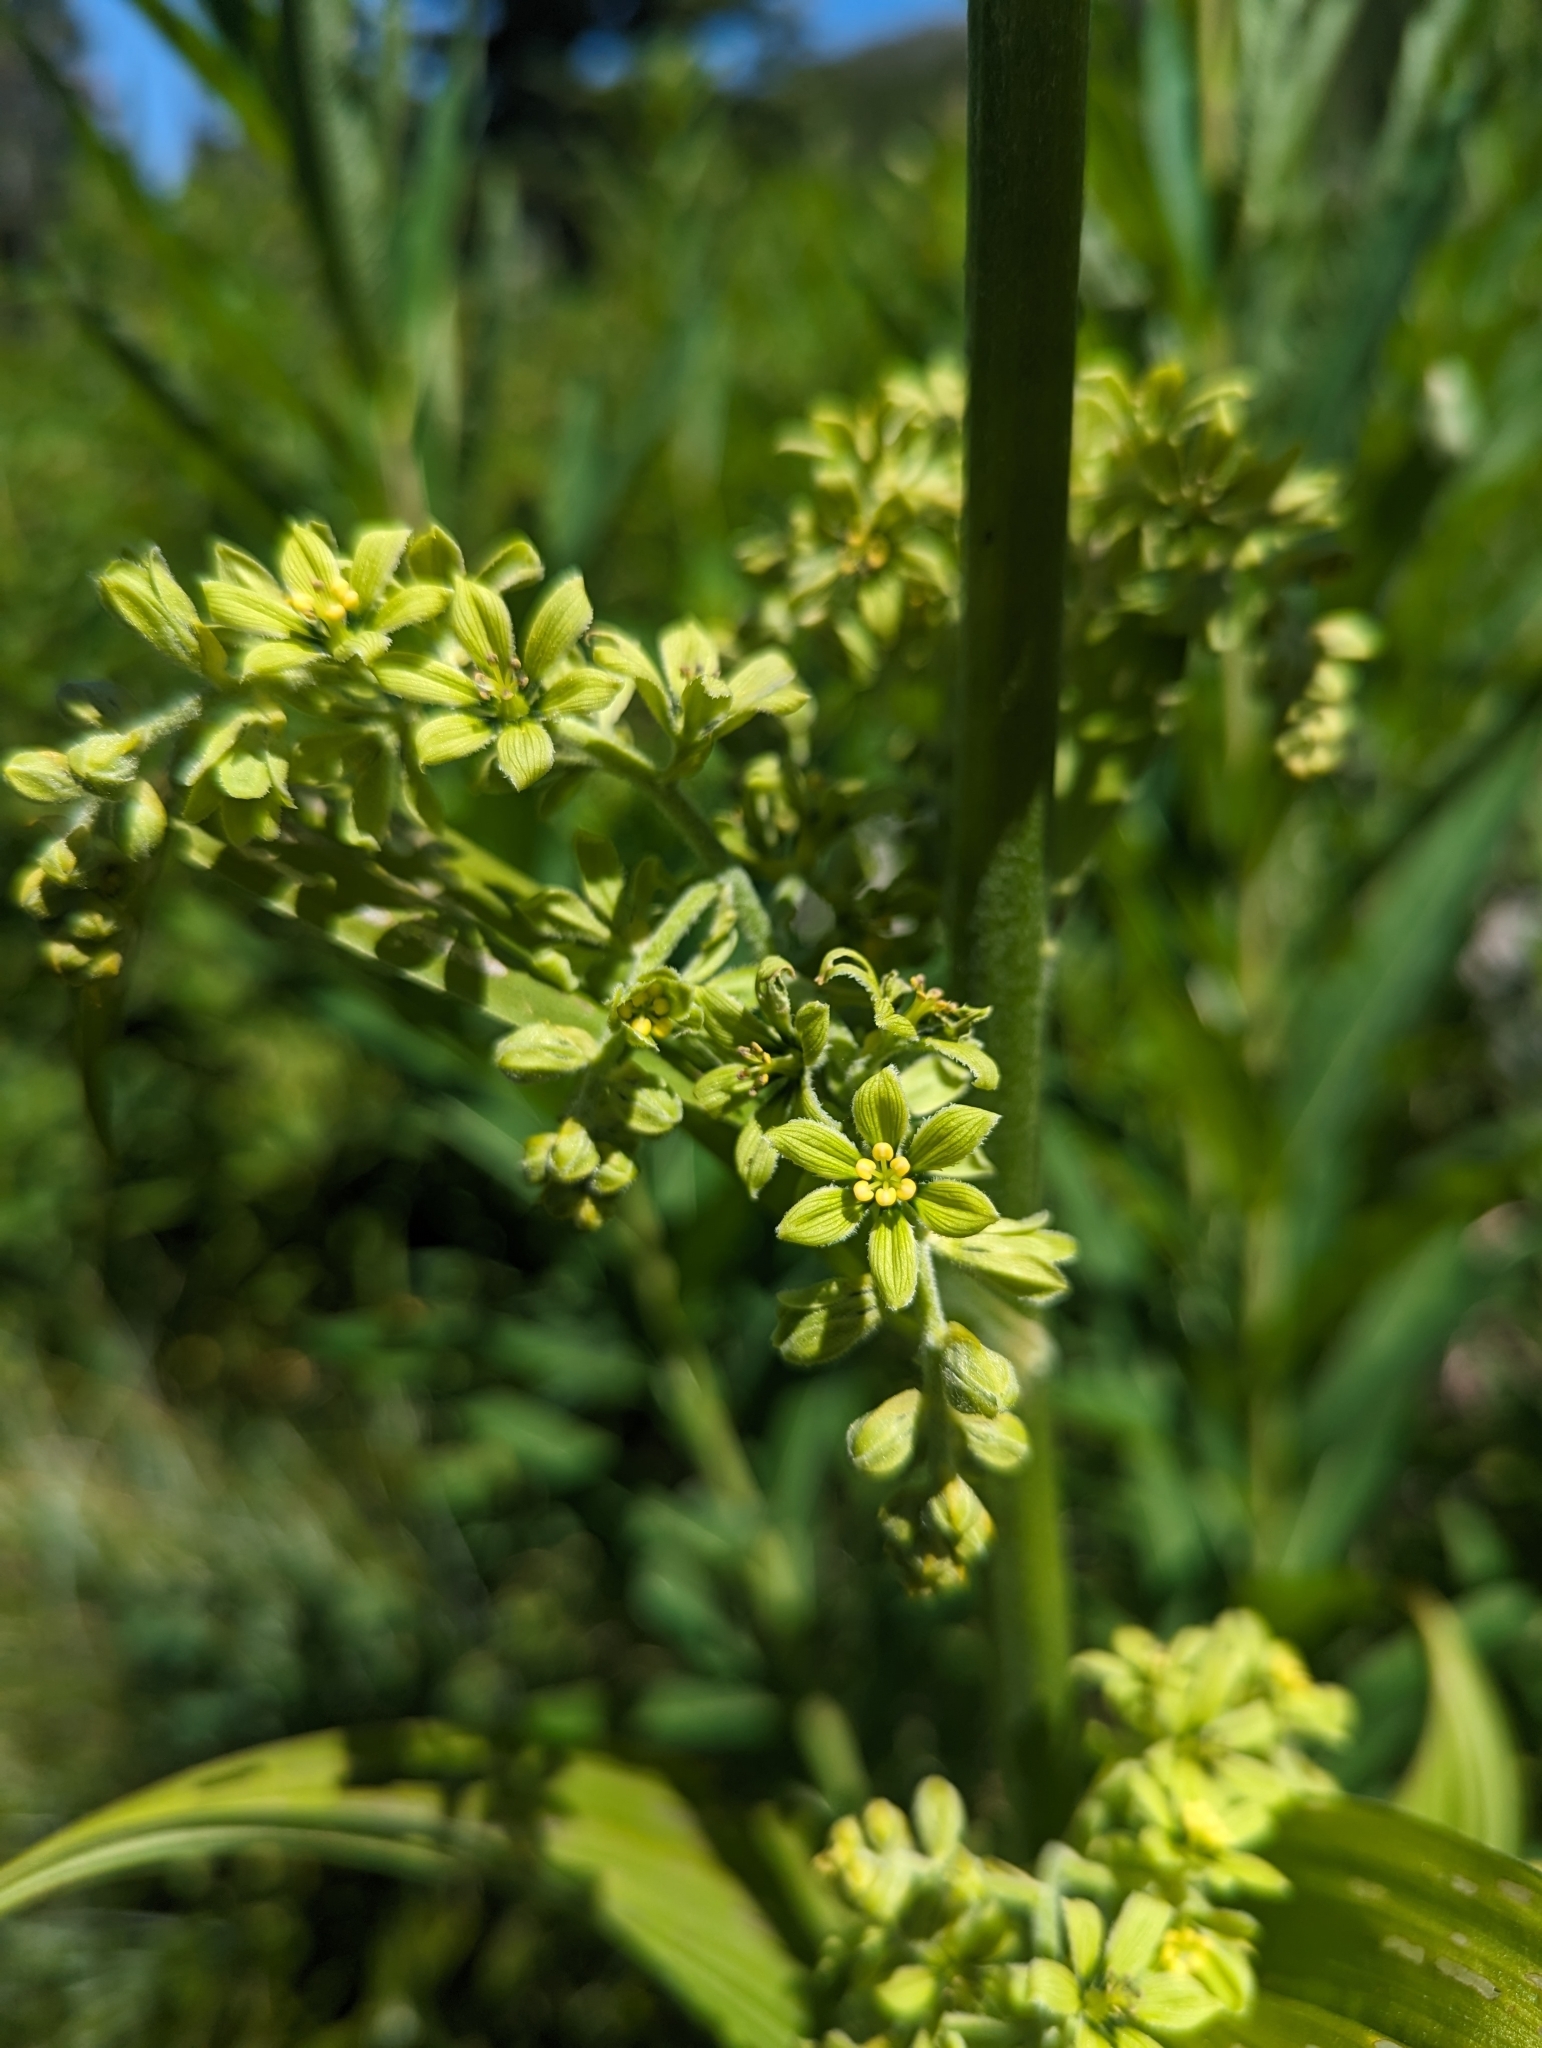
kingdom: Plantae
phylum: Tracheophyta
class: Liliopsida
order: Liliales
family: Melanthiaceae
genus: Veratrum
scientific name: Veratrum viride
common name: American false hellebore
